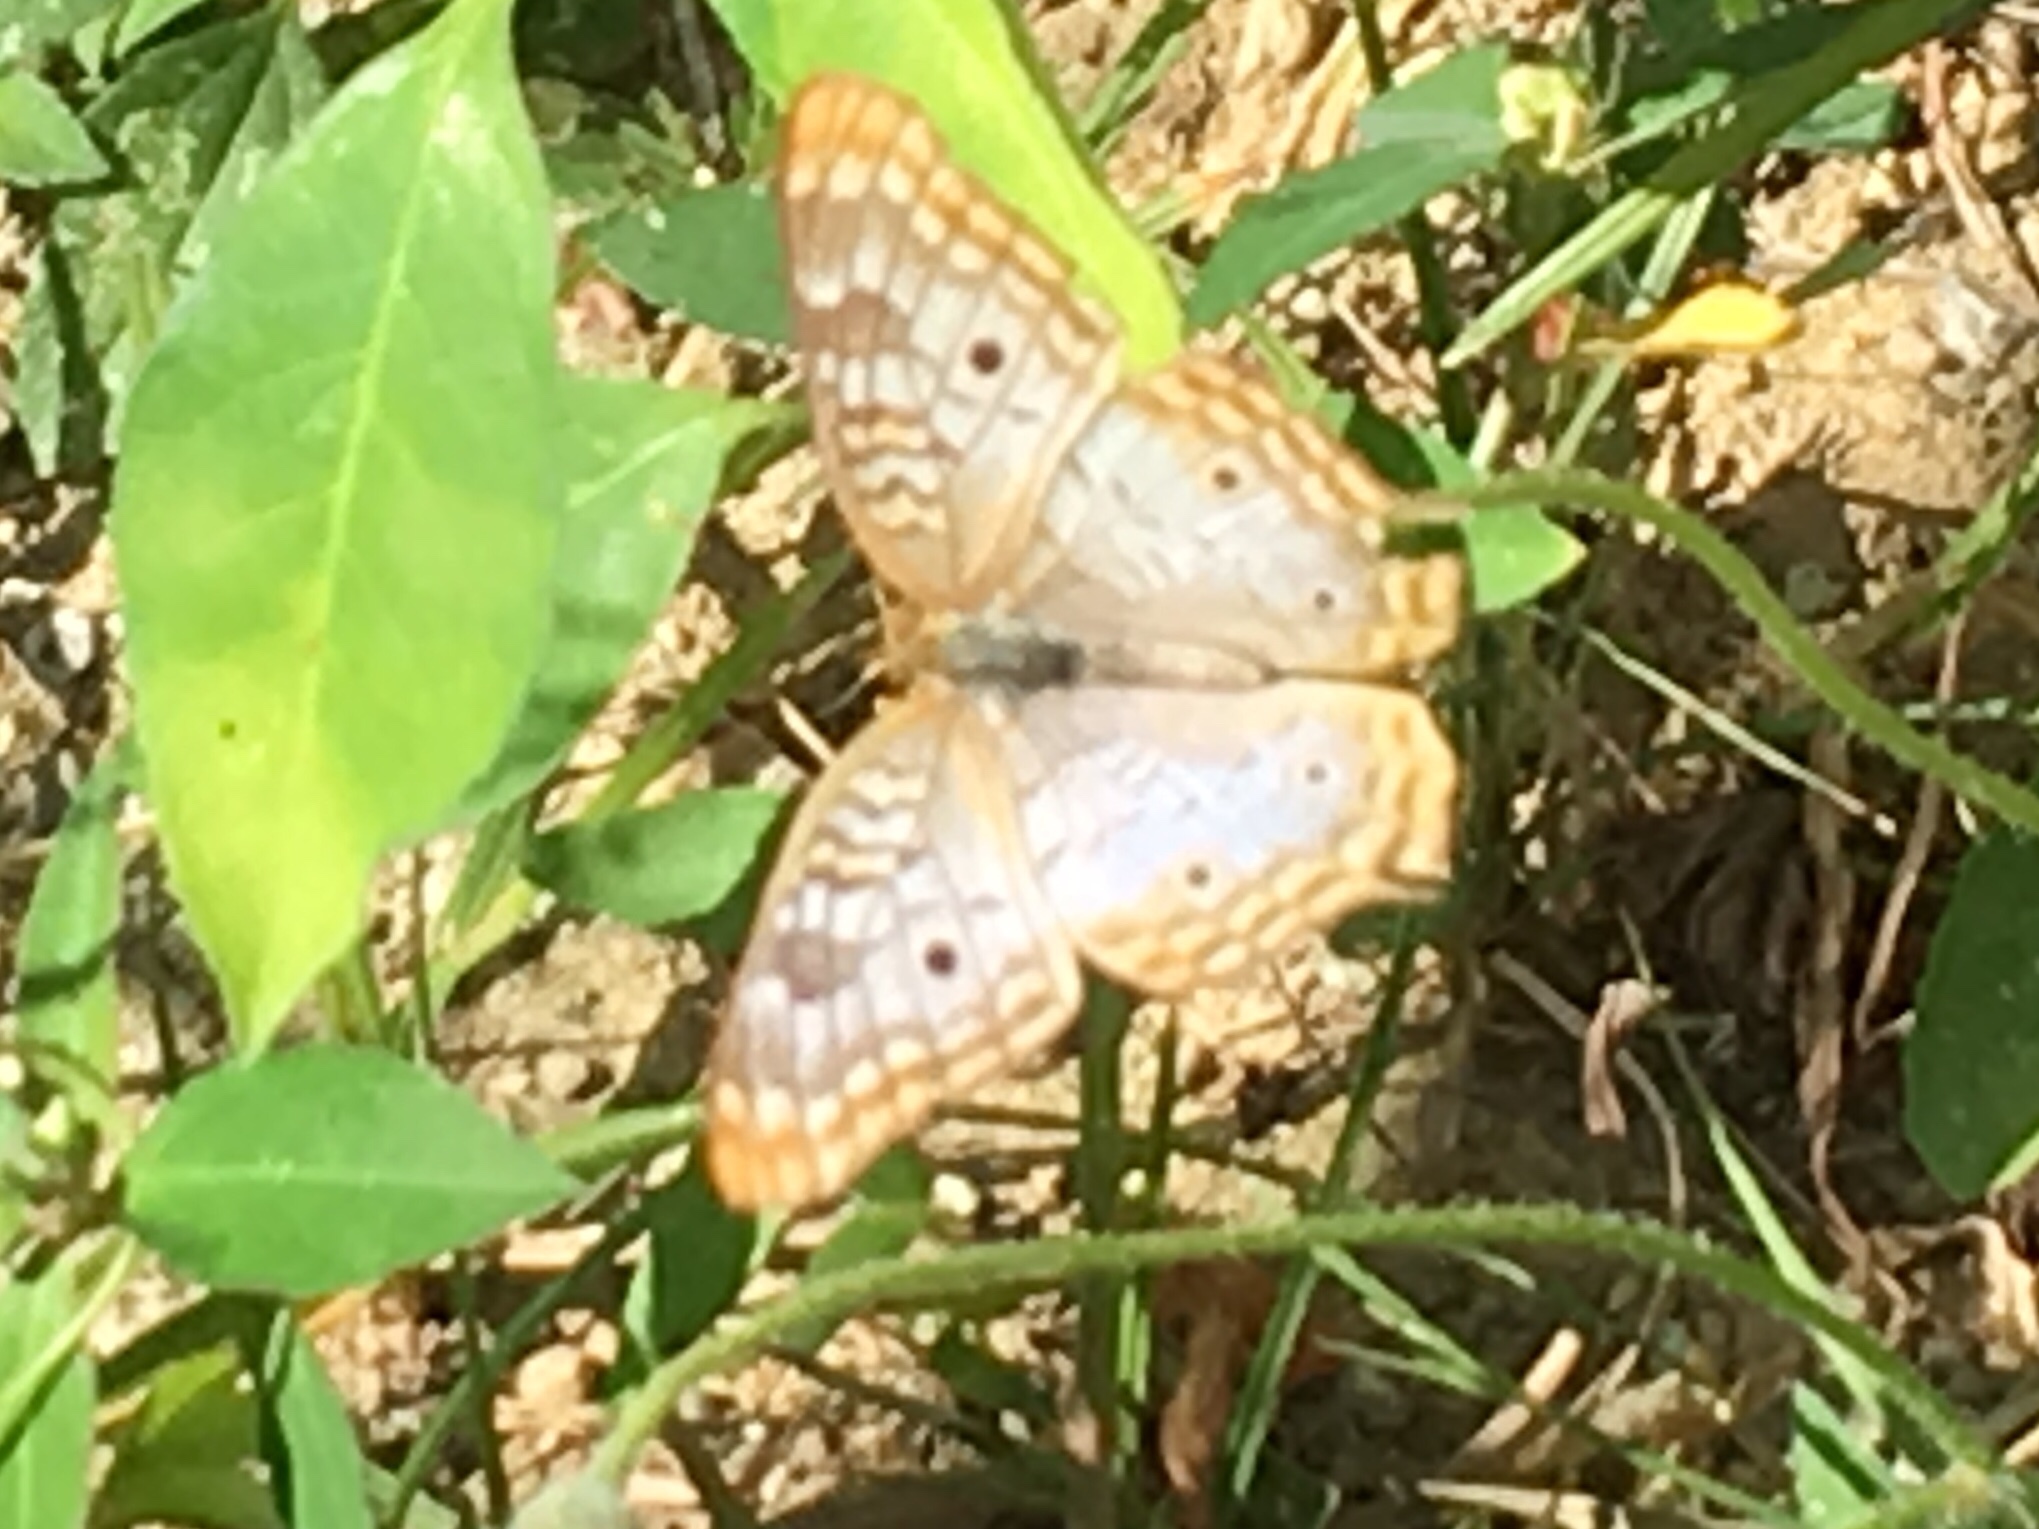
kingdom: Animalia
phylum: Arthropoda
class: Insecta
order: Lepidoptera
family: Nymphalidae
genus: Anartia
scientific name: Anartia jatrophae
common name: White peacock
